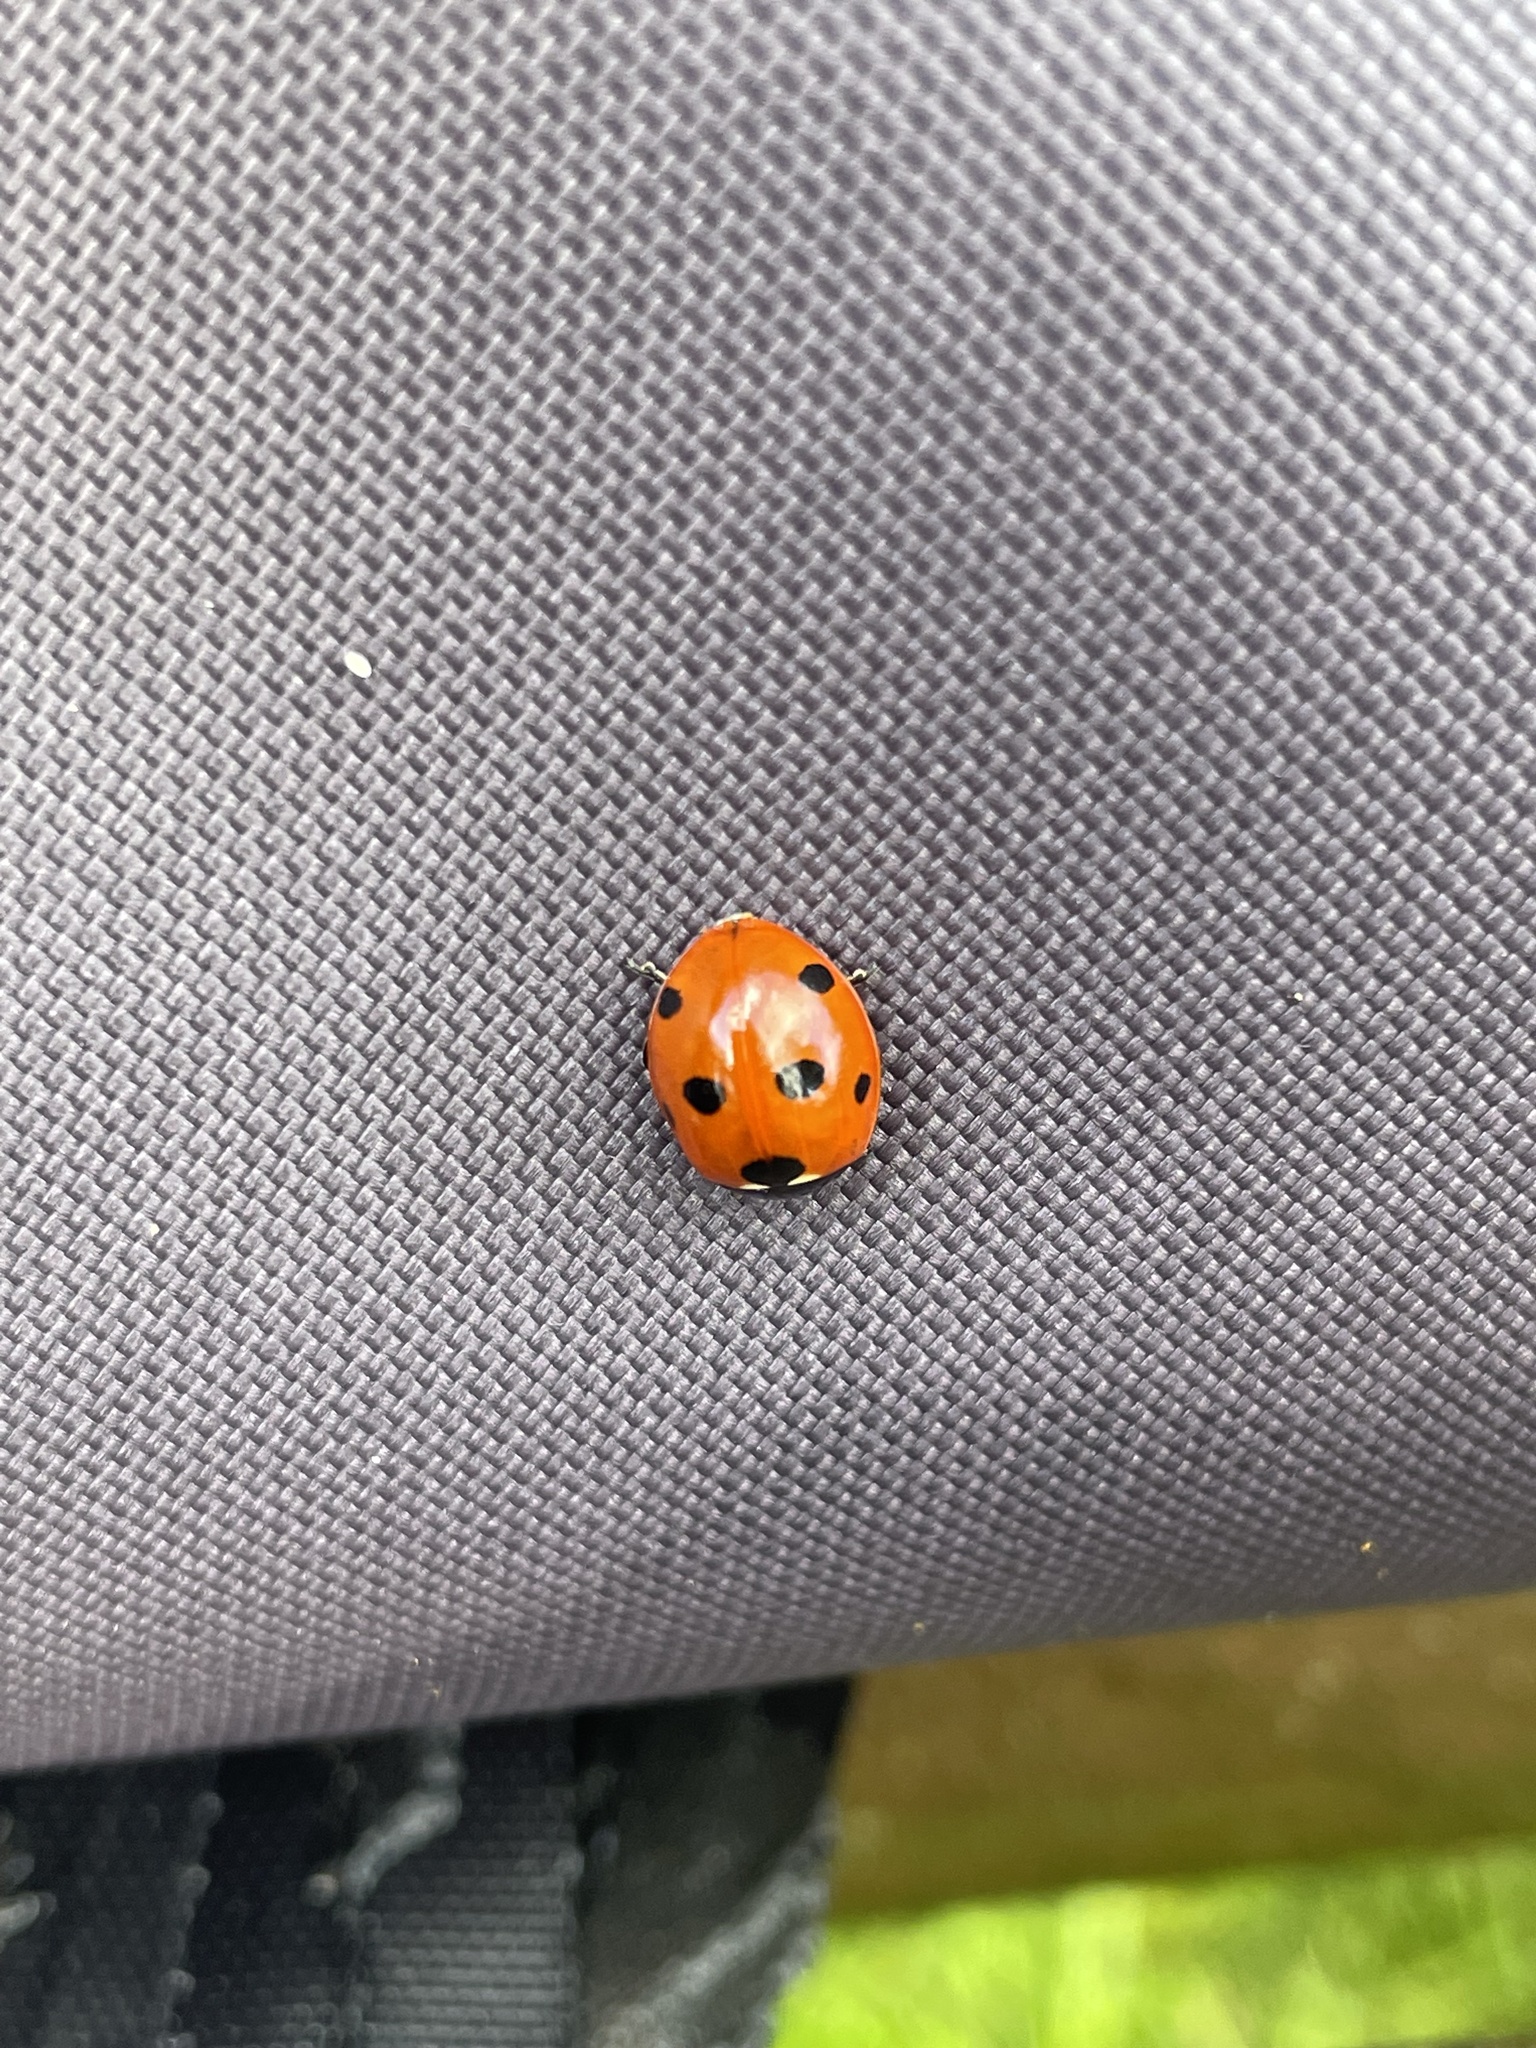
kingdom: Animalia
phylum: Arthropoda
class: Insecta
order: Coleoptera
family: Coccinellidae
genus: Coccinella
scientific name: Coccinella septempunctata
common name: Sevenspotted lady beetle
